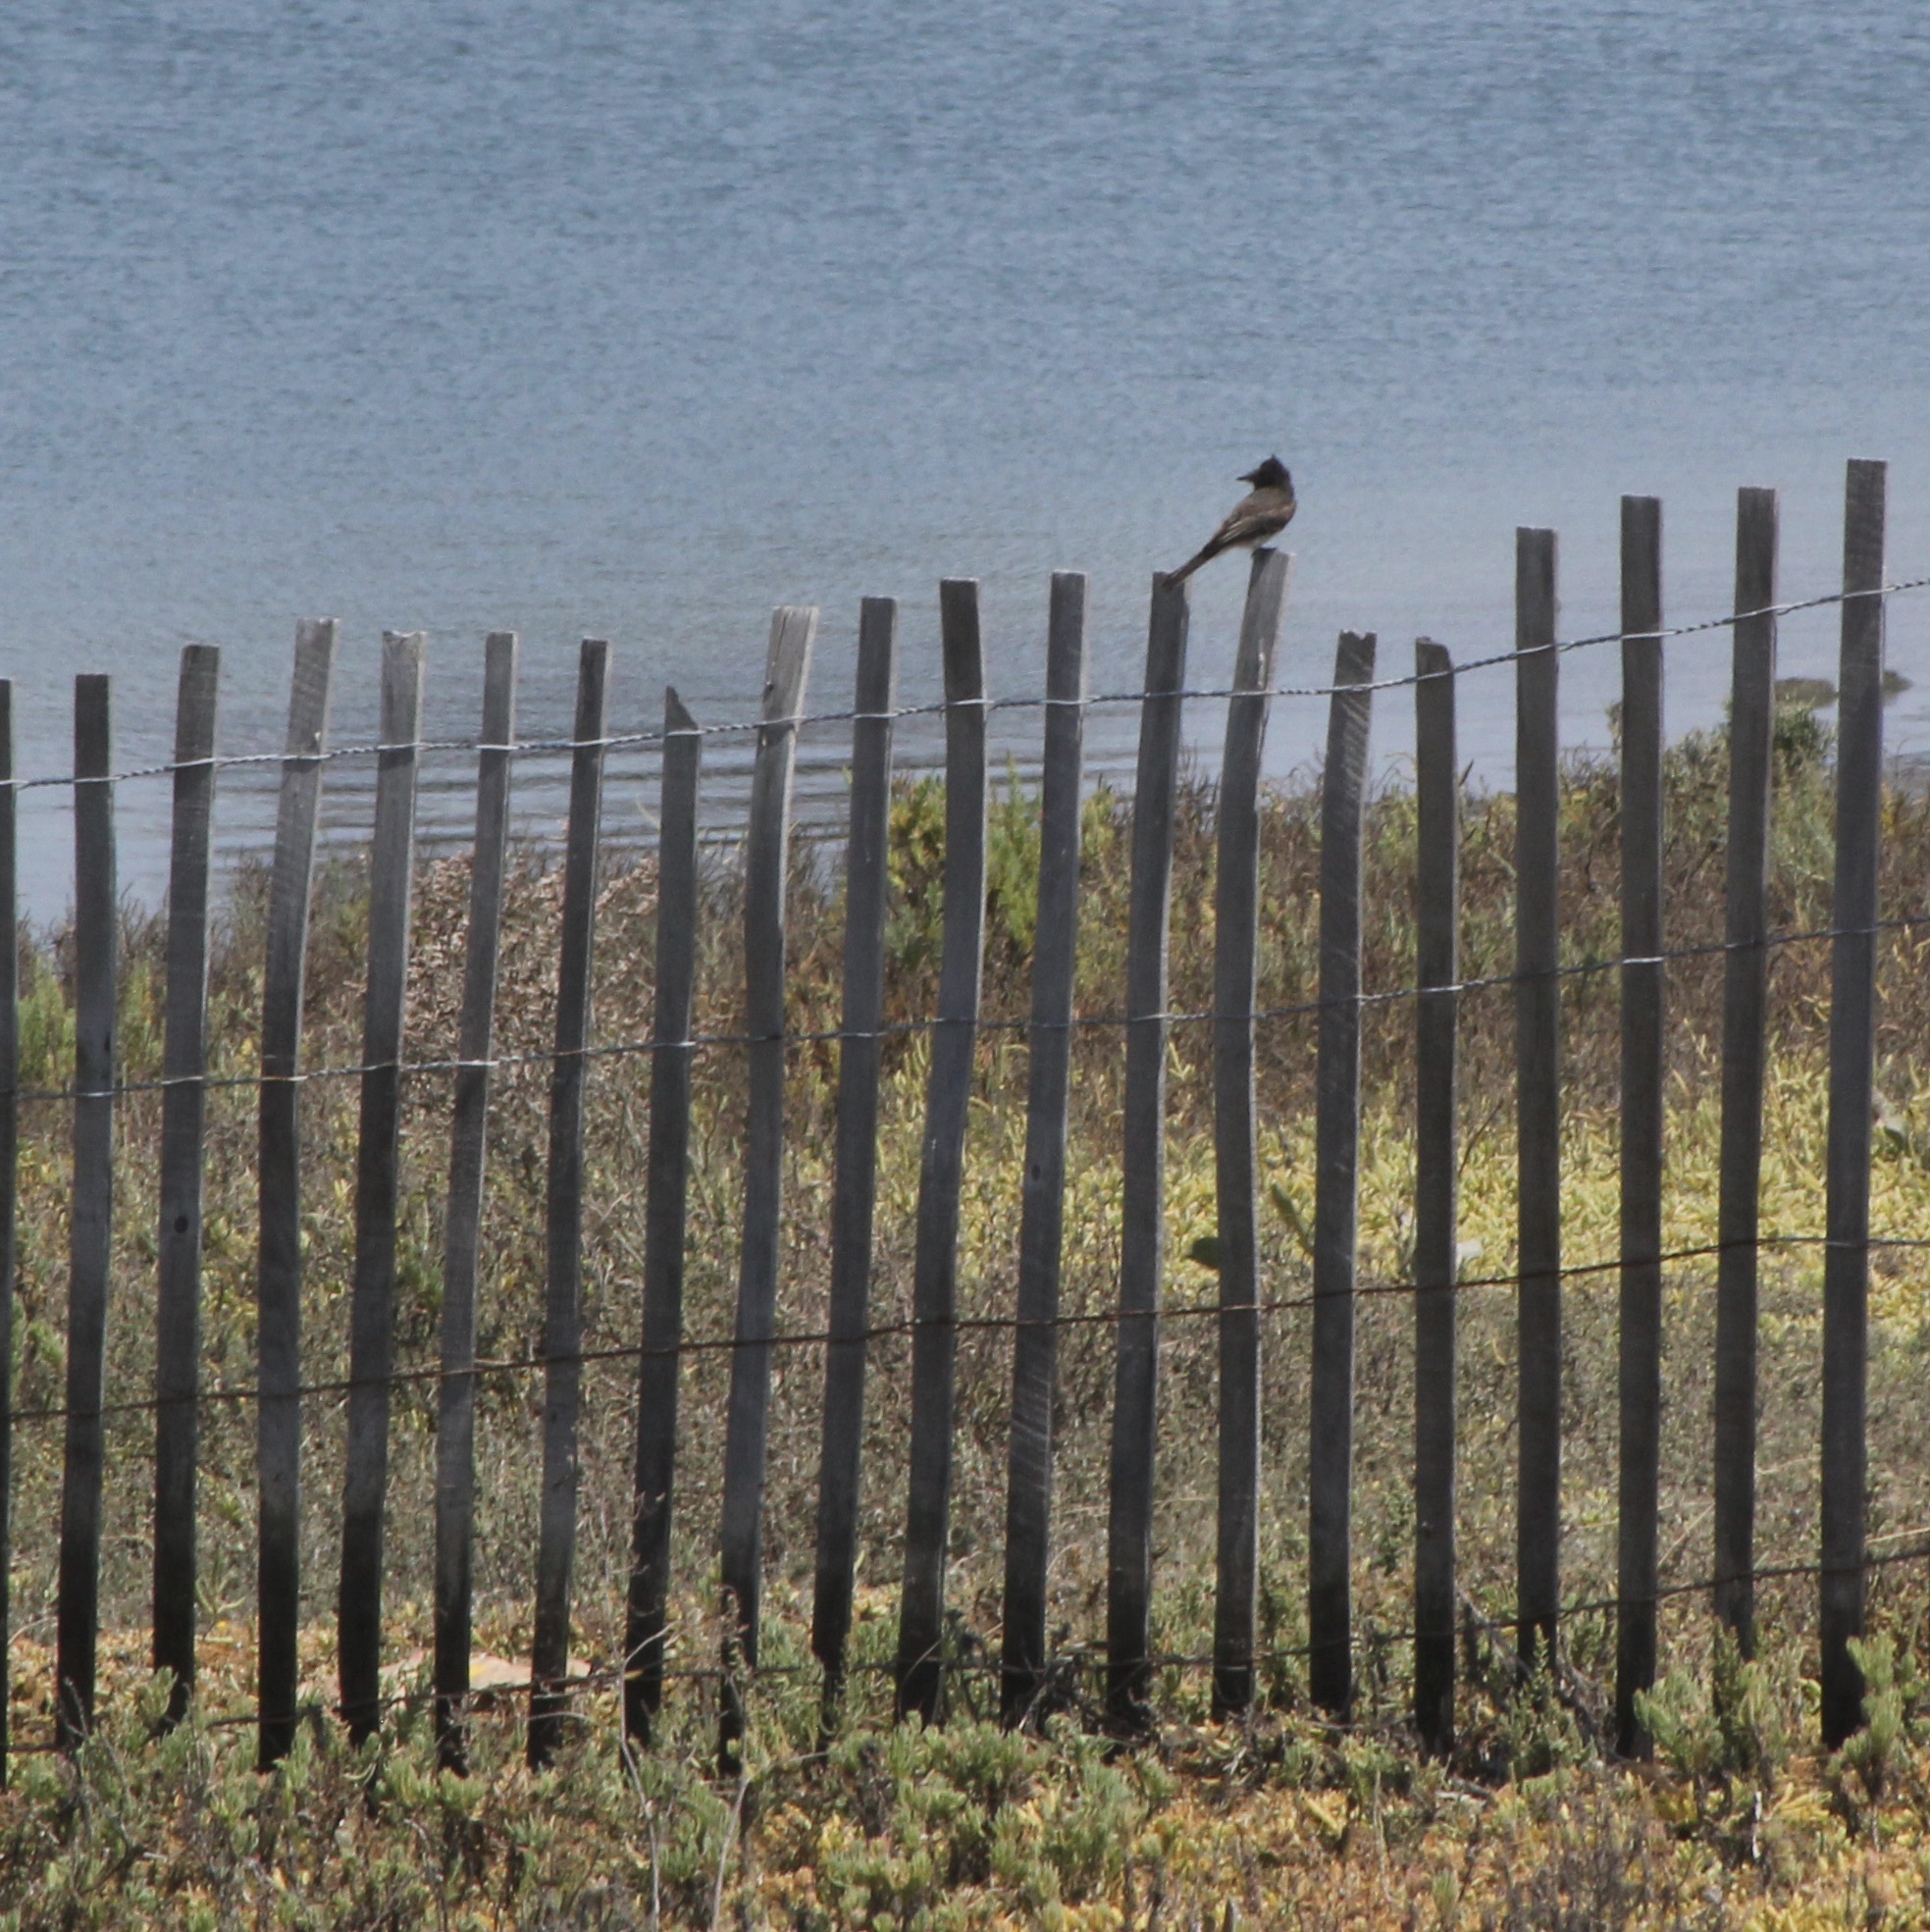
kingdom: Animalia
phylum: Chordata
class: Aves
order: Passeriformes
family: Tyrannidae
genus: Sayornis
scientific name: Sayornis nigricans
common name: Black phoebe
